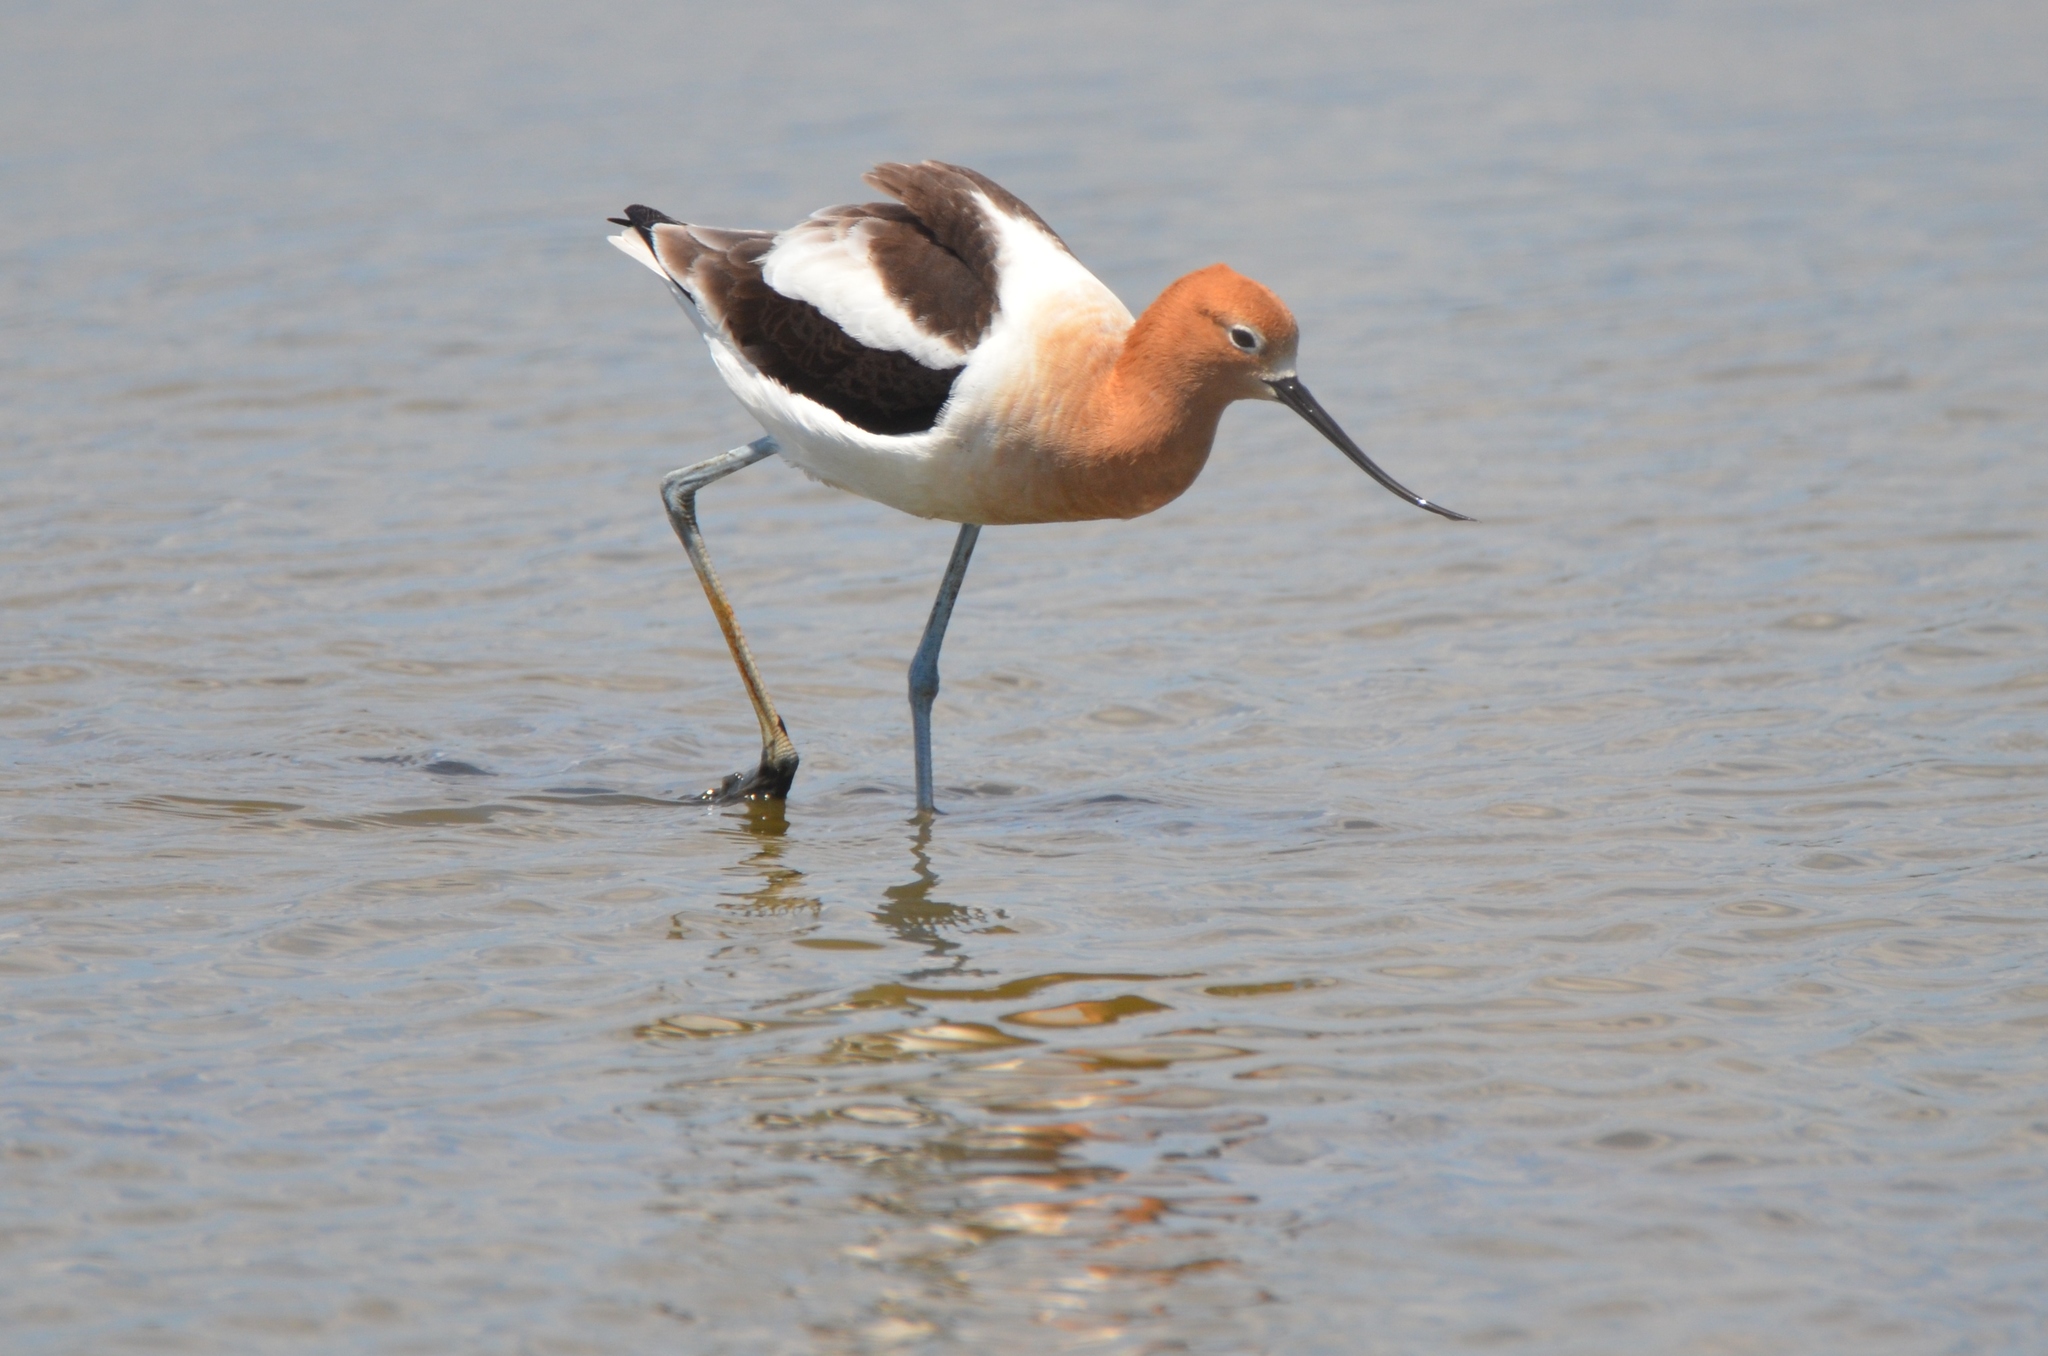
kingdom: Animalia
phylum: Chordata
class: Aves
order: Charadriiformes
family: Recurvirostridae
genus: Recurvirostra
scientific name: Recurvirostra americana
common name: American avocet
